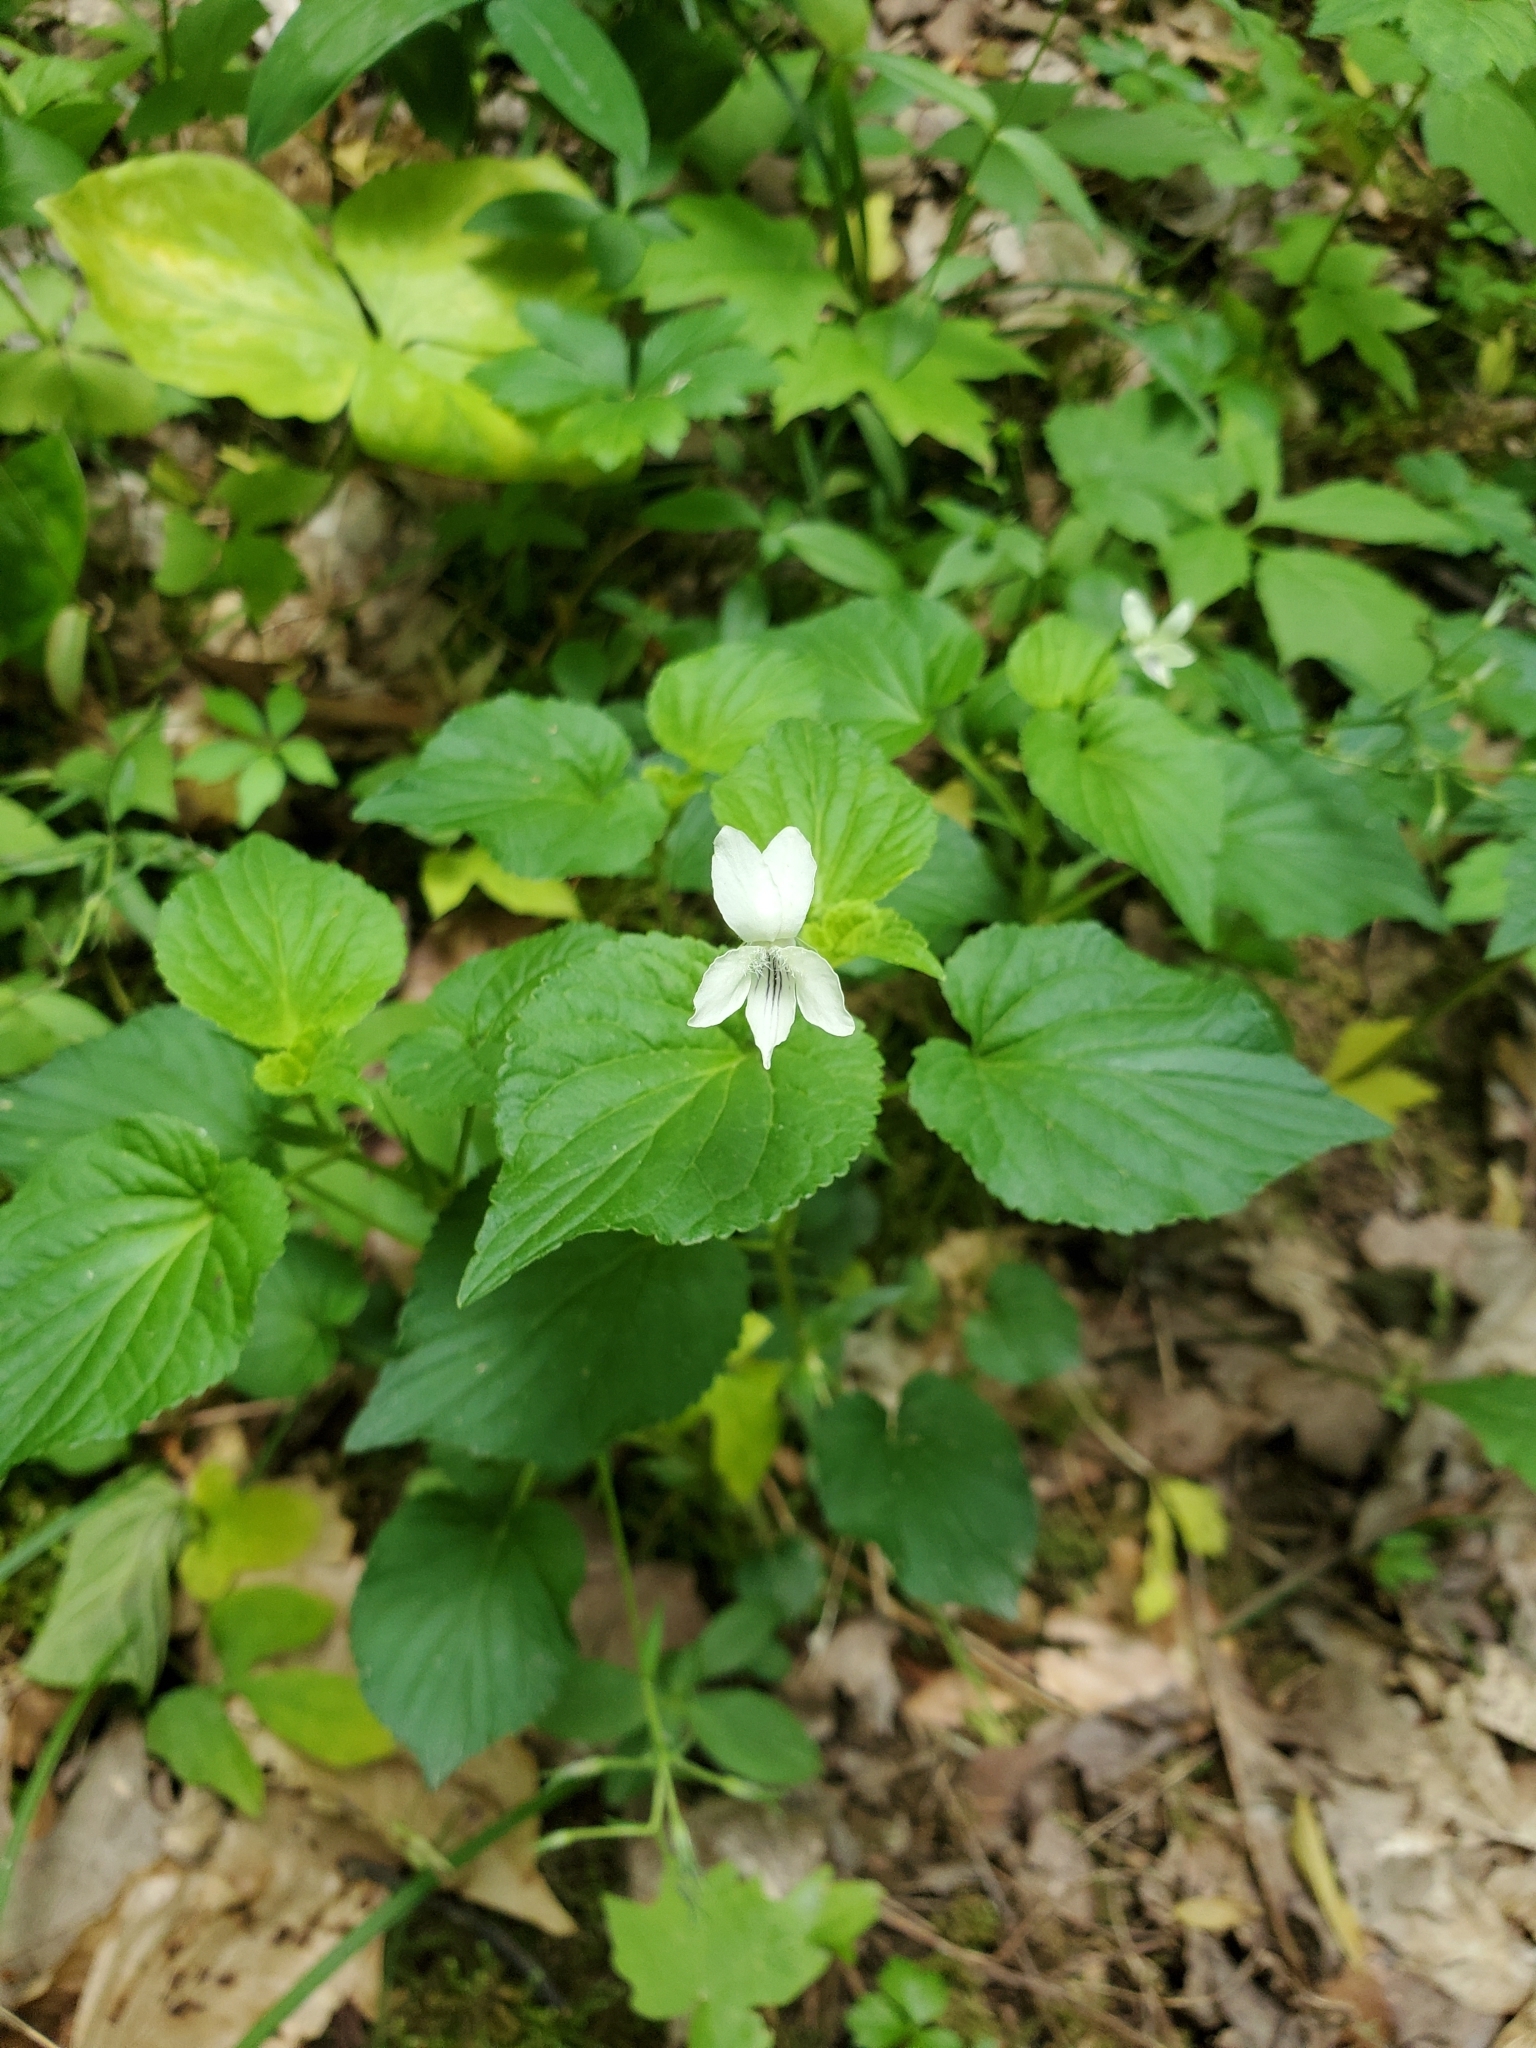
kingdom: Plantae
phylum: Tracheophyta
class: Magnoliopsida
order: Malpighiales
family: Violaceae
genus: Viola
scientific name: Viola striata
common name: Cream violet
